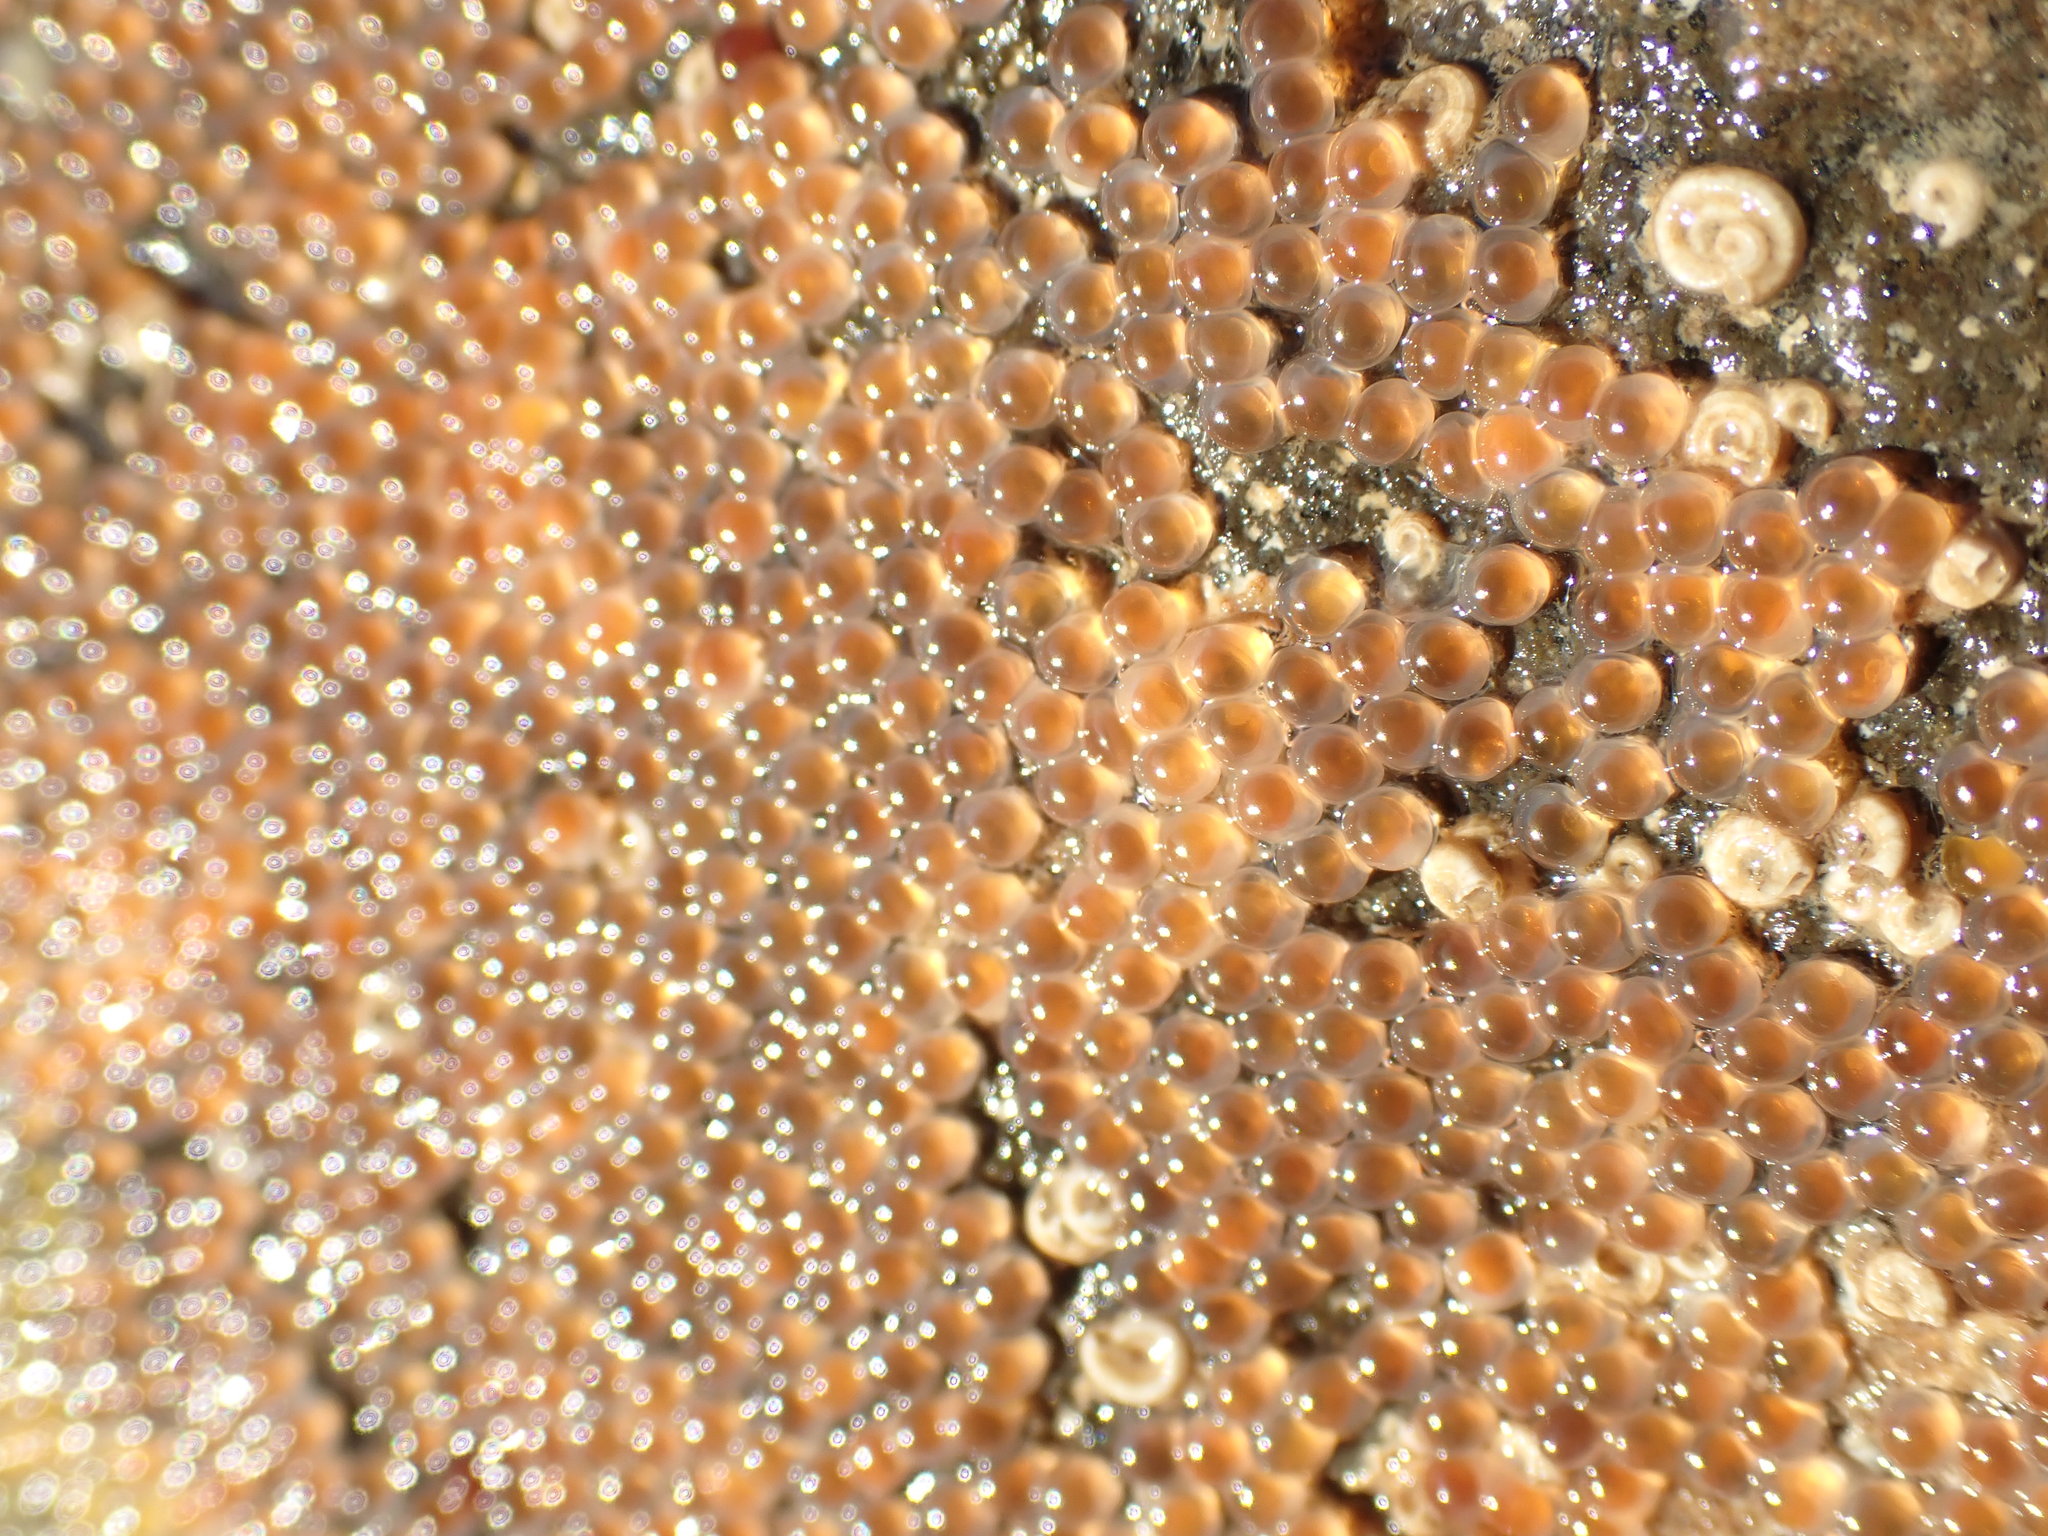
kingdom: Animalia
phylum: Chordata
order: Gobiesociformes
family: Gobiesocidae
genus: Trachelochismus
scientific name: Trachelochismus pinnulatus
